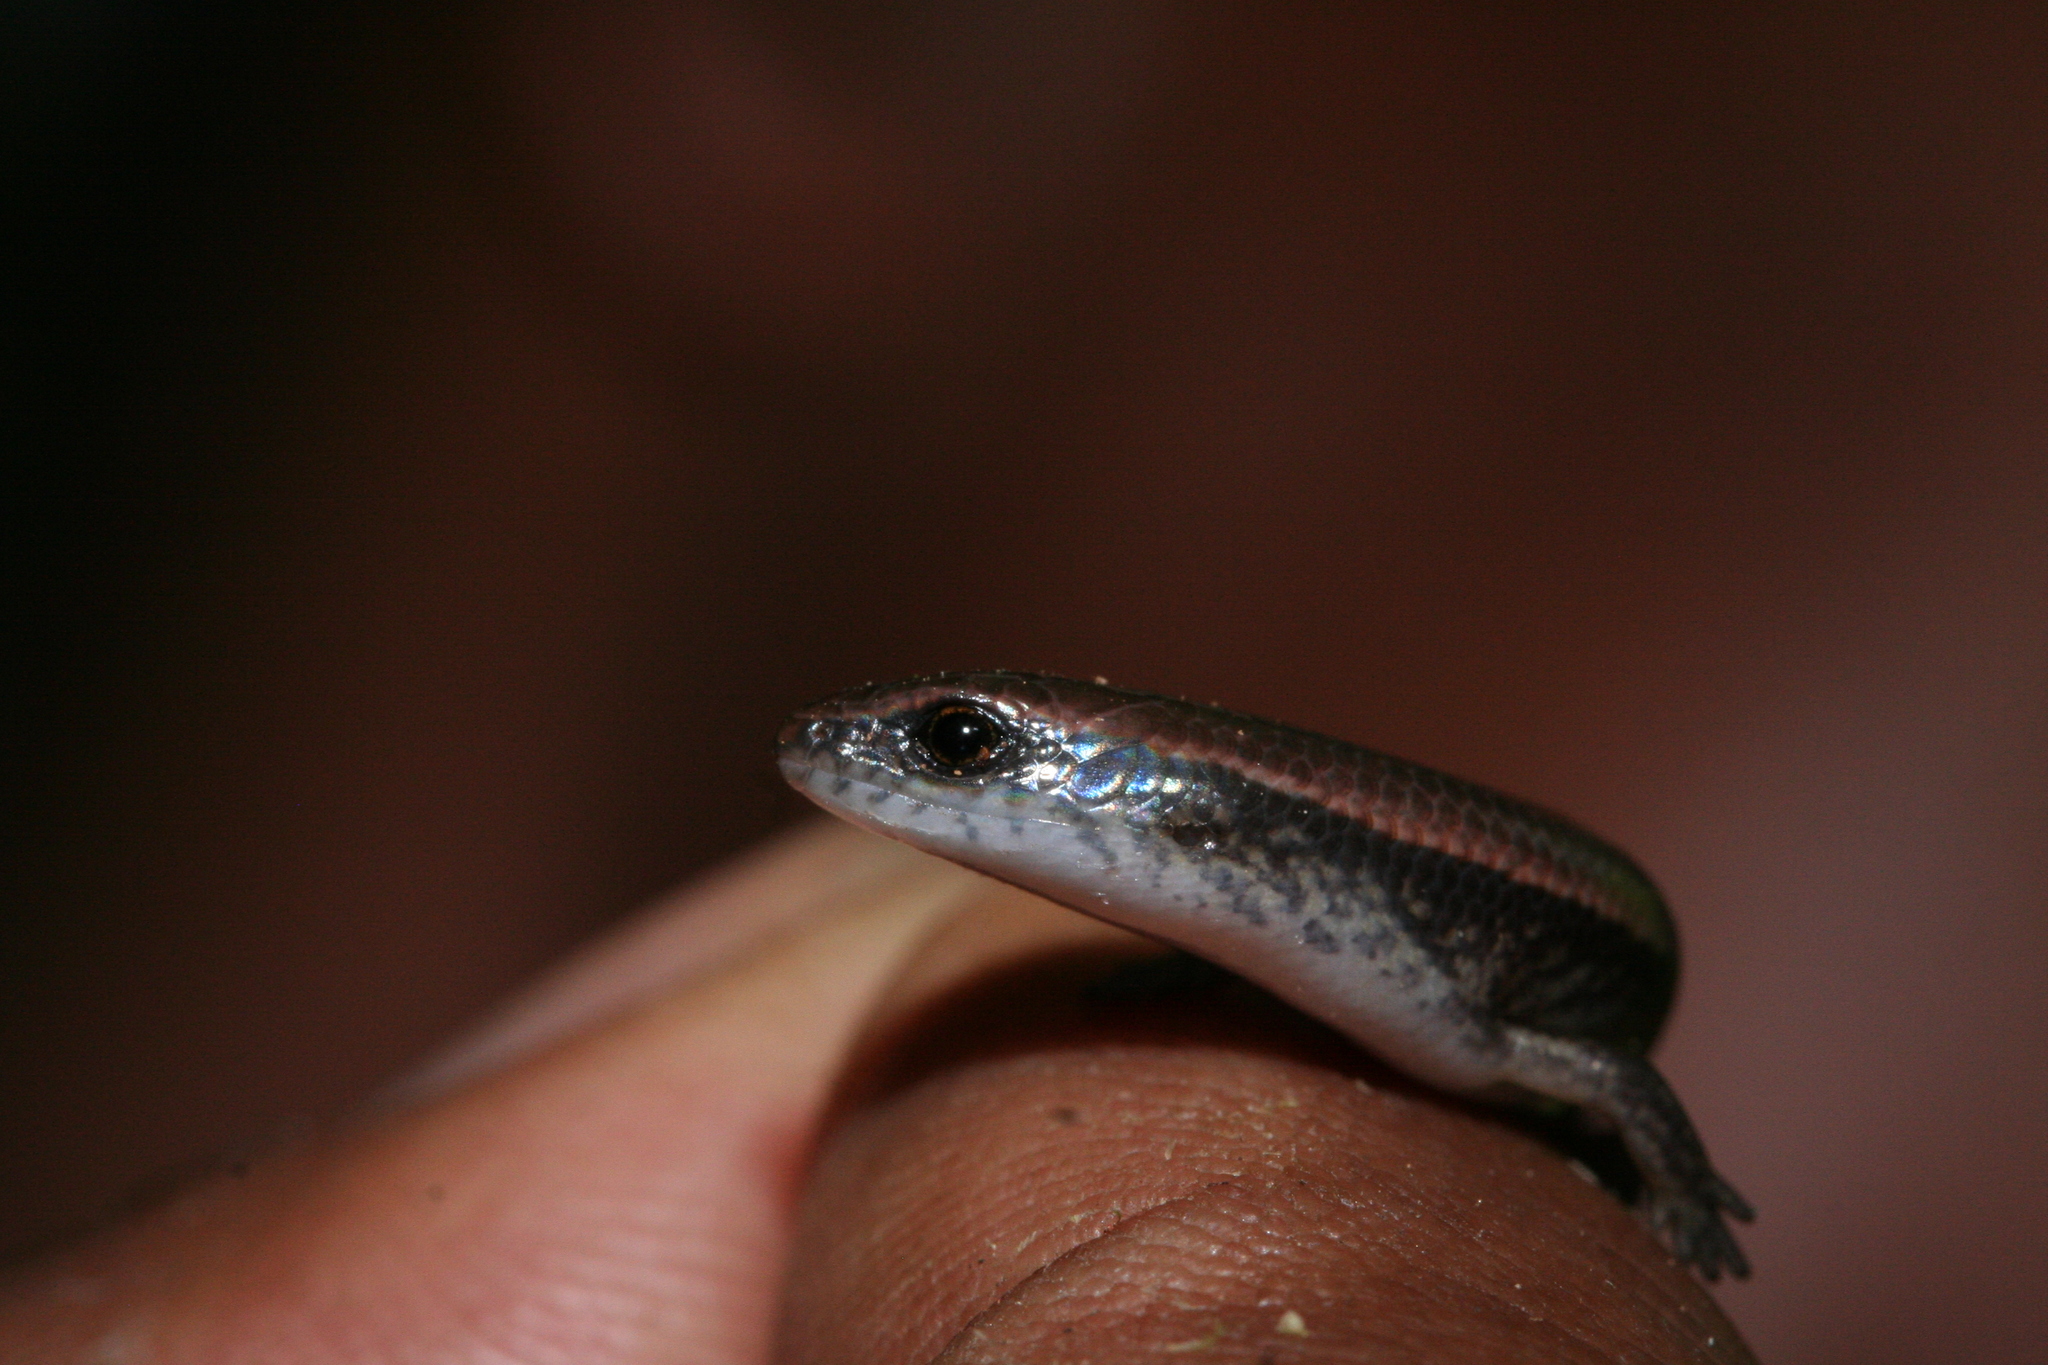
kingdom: Animalia
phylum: Chordata
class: Squamata
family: Scincidae
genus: Madascincus
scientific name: Madascincus melanopleura
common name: Common madagascar skink
